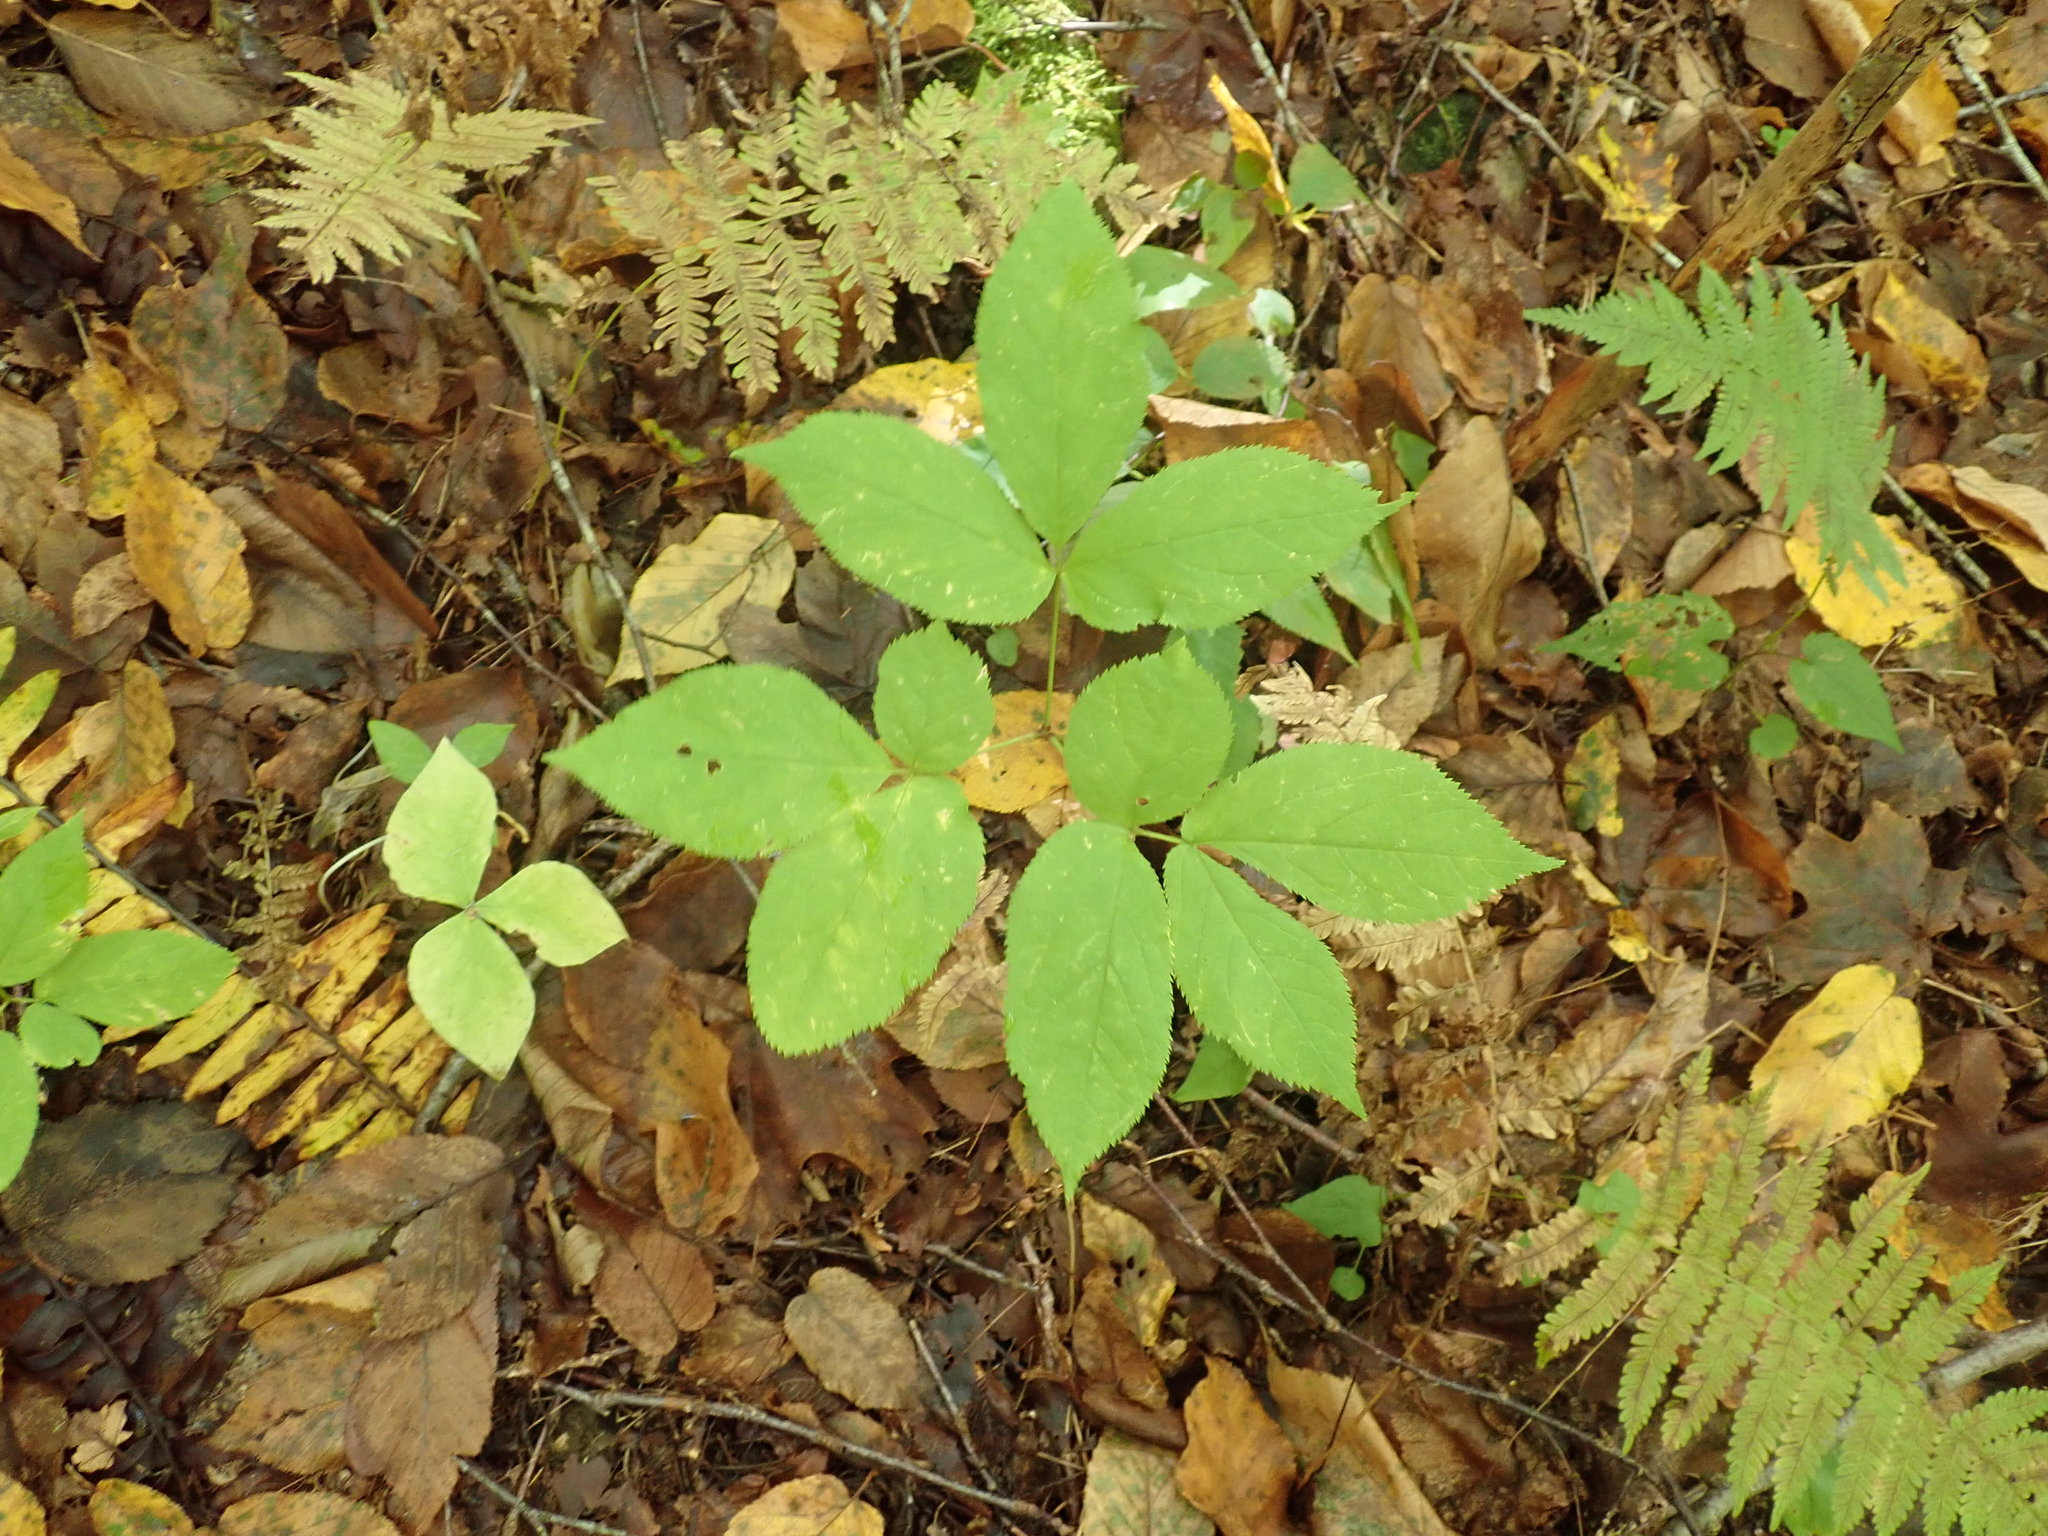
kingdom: Plantae
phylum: Tracheophyta
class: Magnoliopsida
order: Apiales
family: Araliaceae
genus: Aralia
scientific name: Aralia nudicaulis
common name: Wild sarsaparilla
